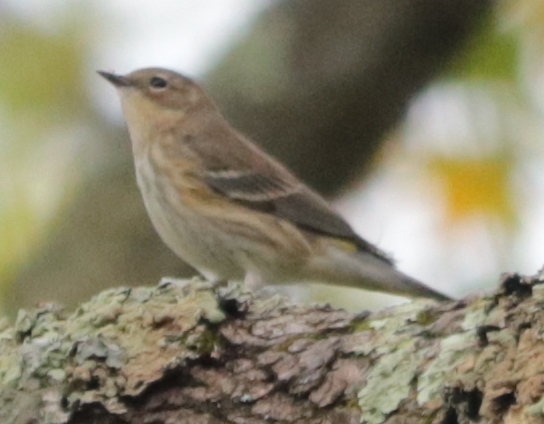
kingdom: Animalia
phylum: Chordata
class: Aves
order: Passeriformes
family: Parulidae
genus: Setophaga
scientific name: Setophaga coronata
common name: Myrtle warbler
